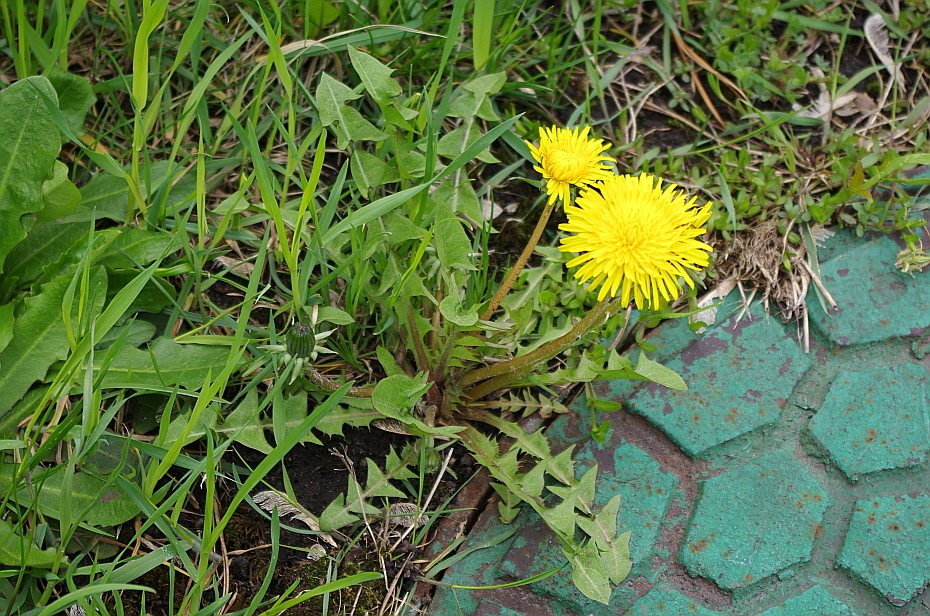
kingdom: Plantae
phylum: Tracheophyta
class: Magnoliopsida
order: Asterales
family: Asteraceae
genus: Taraxacum
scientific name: Taraxacum officinale
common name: Common dandelion
